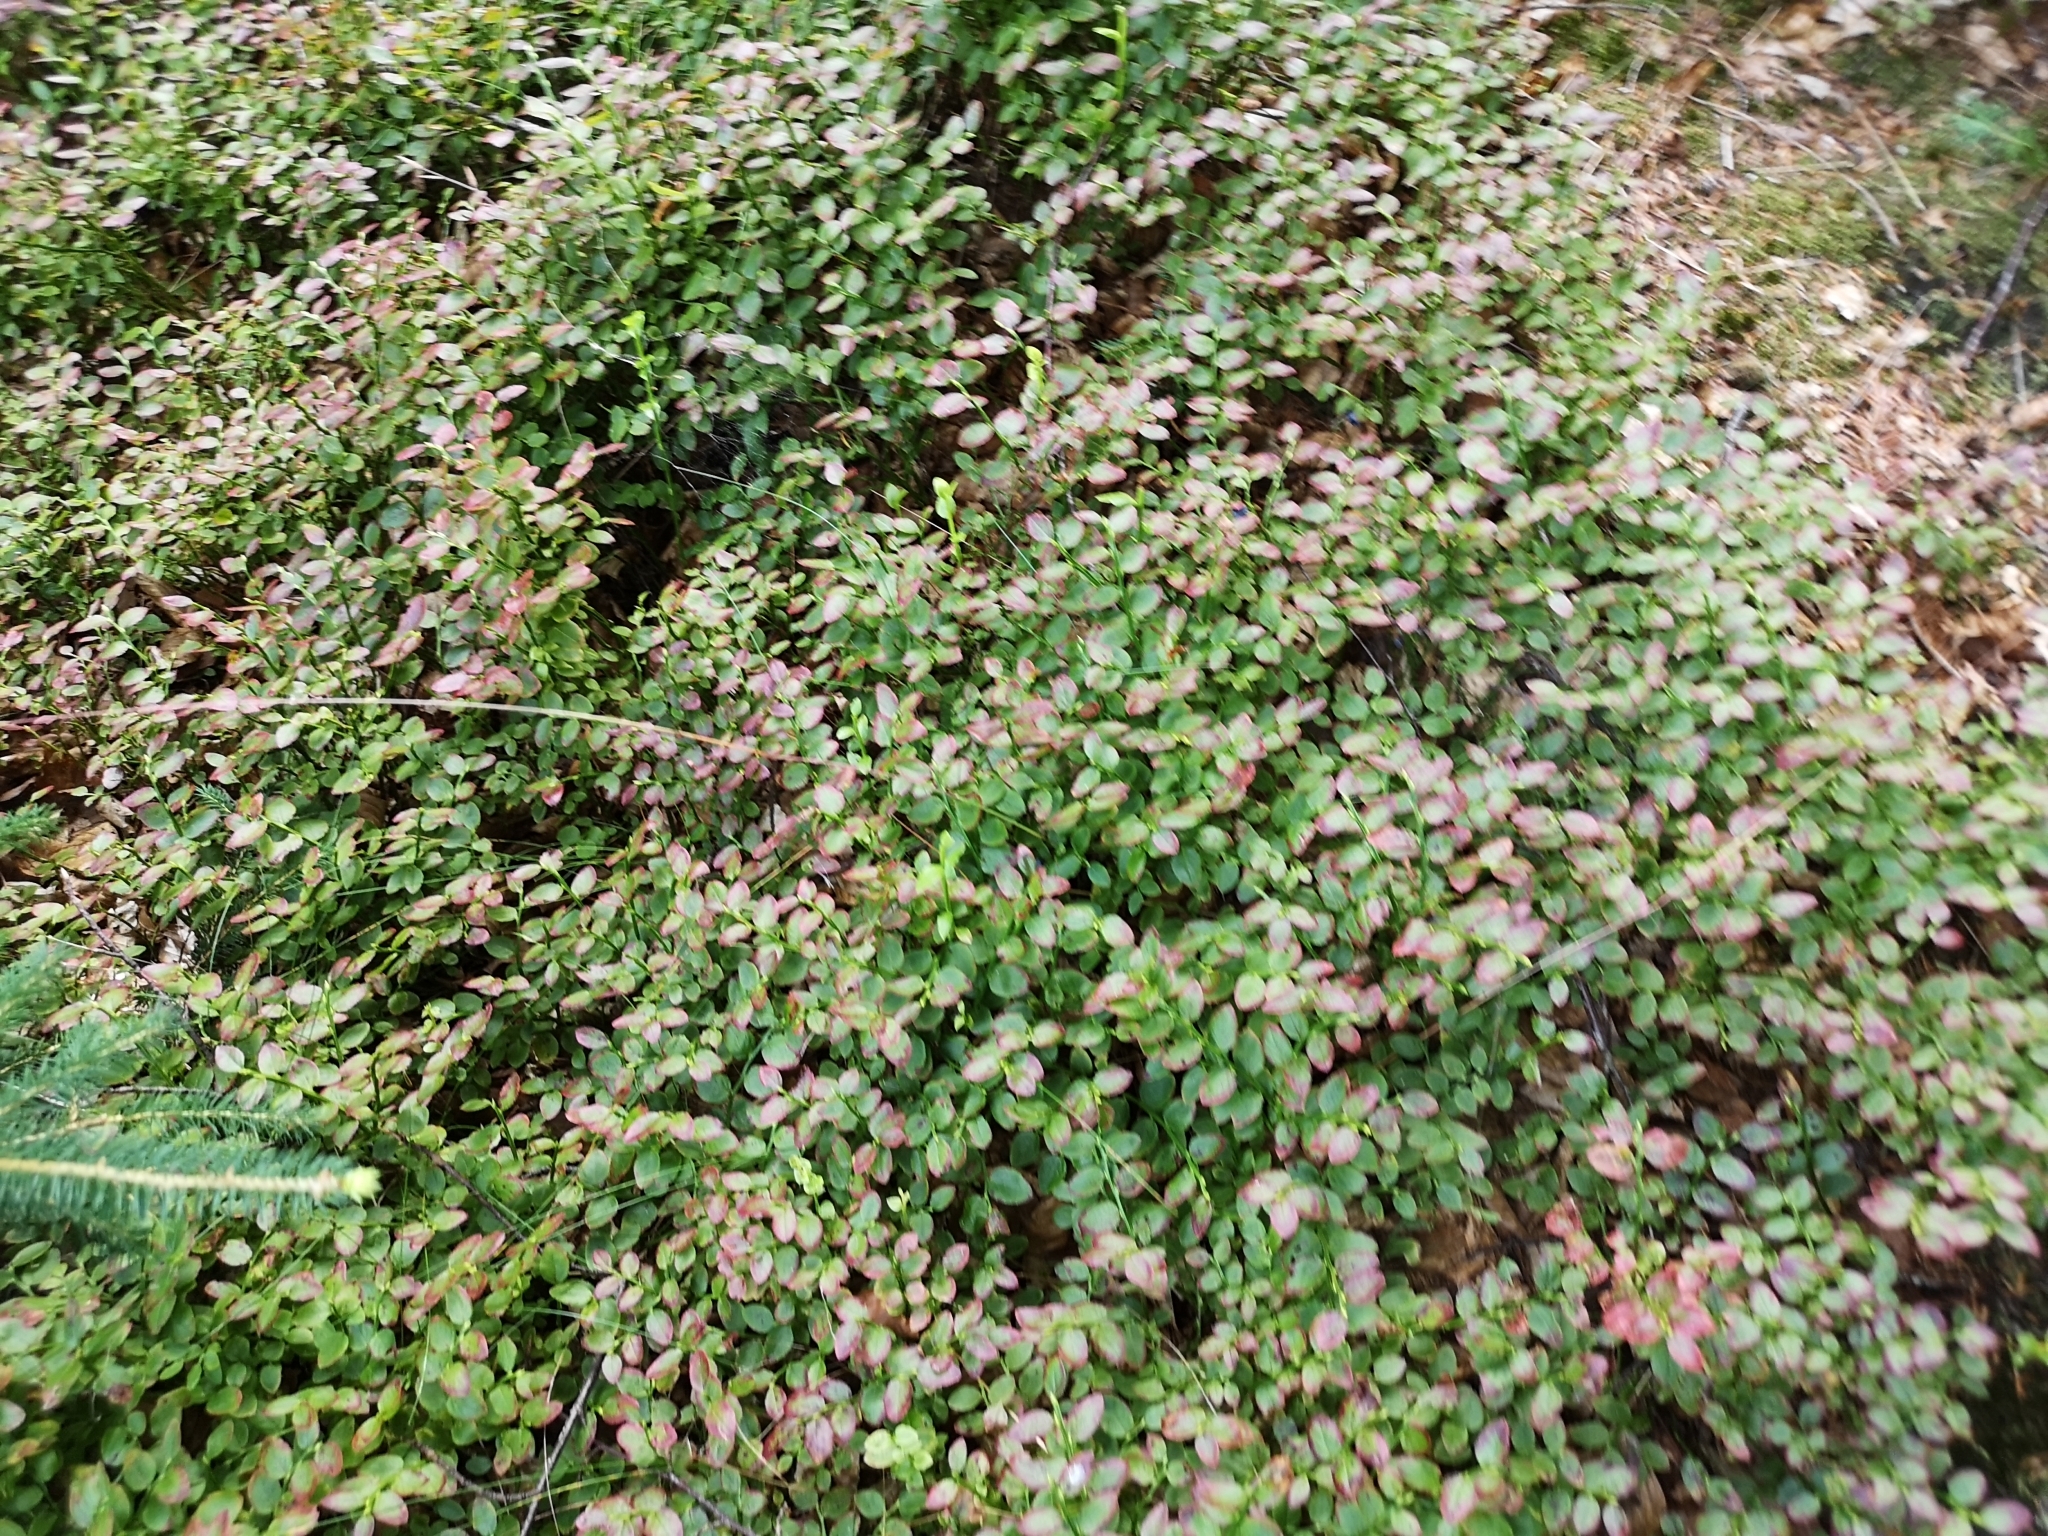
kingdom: Plantae
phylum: Tracheophyta
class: Magnoliopsida
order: Ericales
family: Ericaceae
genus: Vaccinium
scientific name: Vaccinium myrtillus
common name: Bilberry
